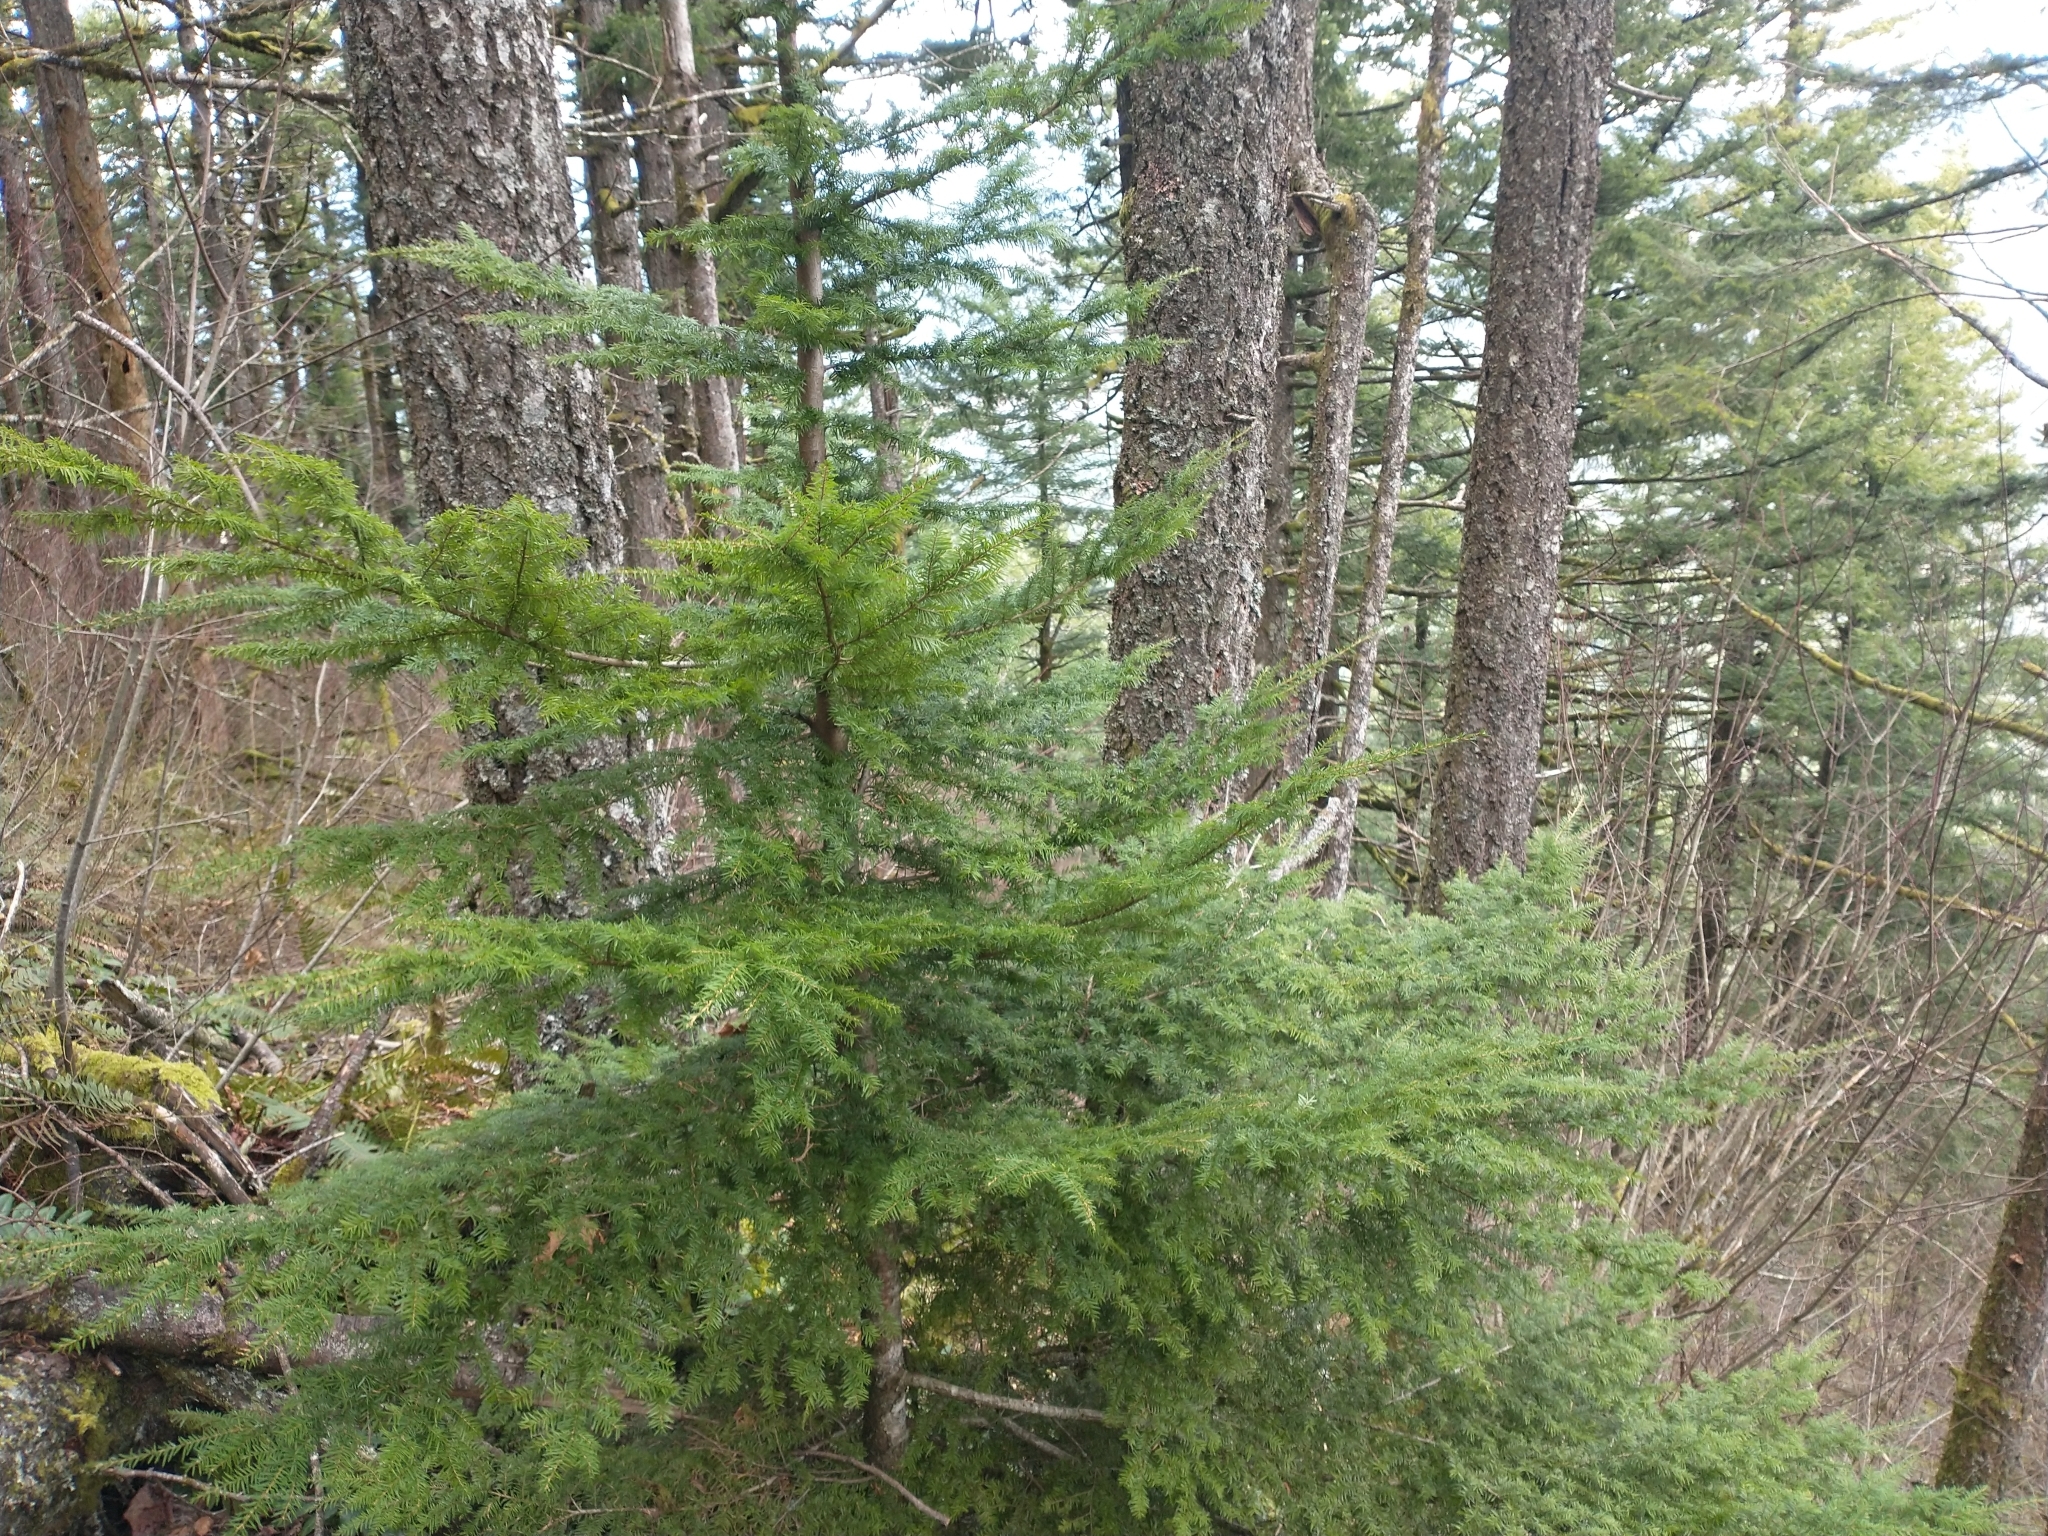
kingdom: Plantae
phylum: Tracheophyta
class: Pinopsida
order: Pinales
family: Pinaceae
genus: Tsuga
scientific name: Tsuga heterophylla
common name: Western hemlock
